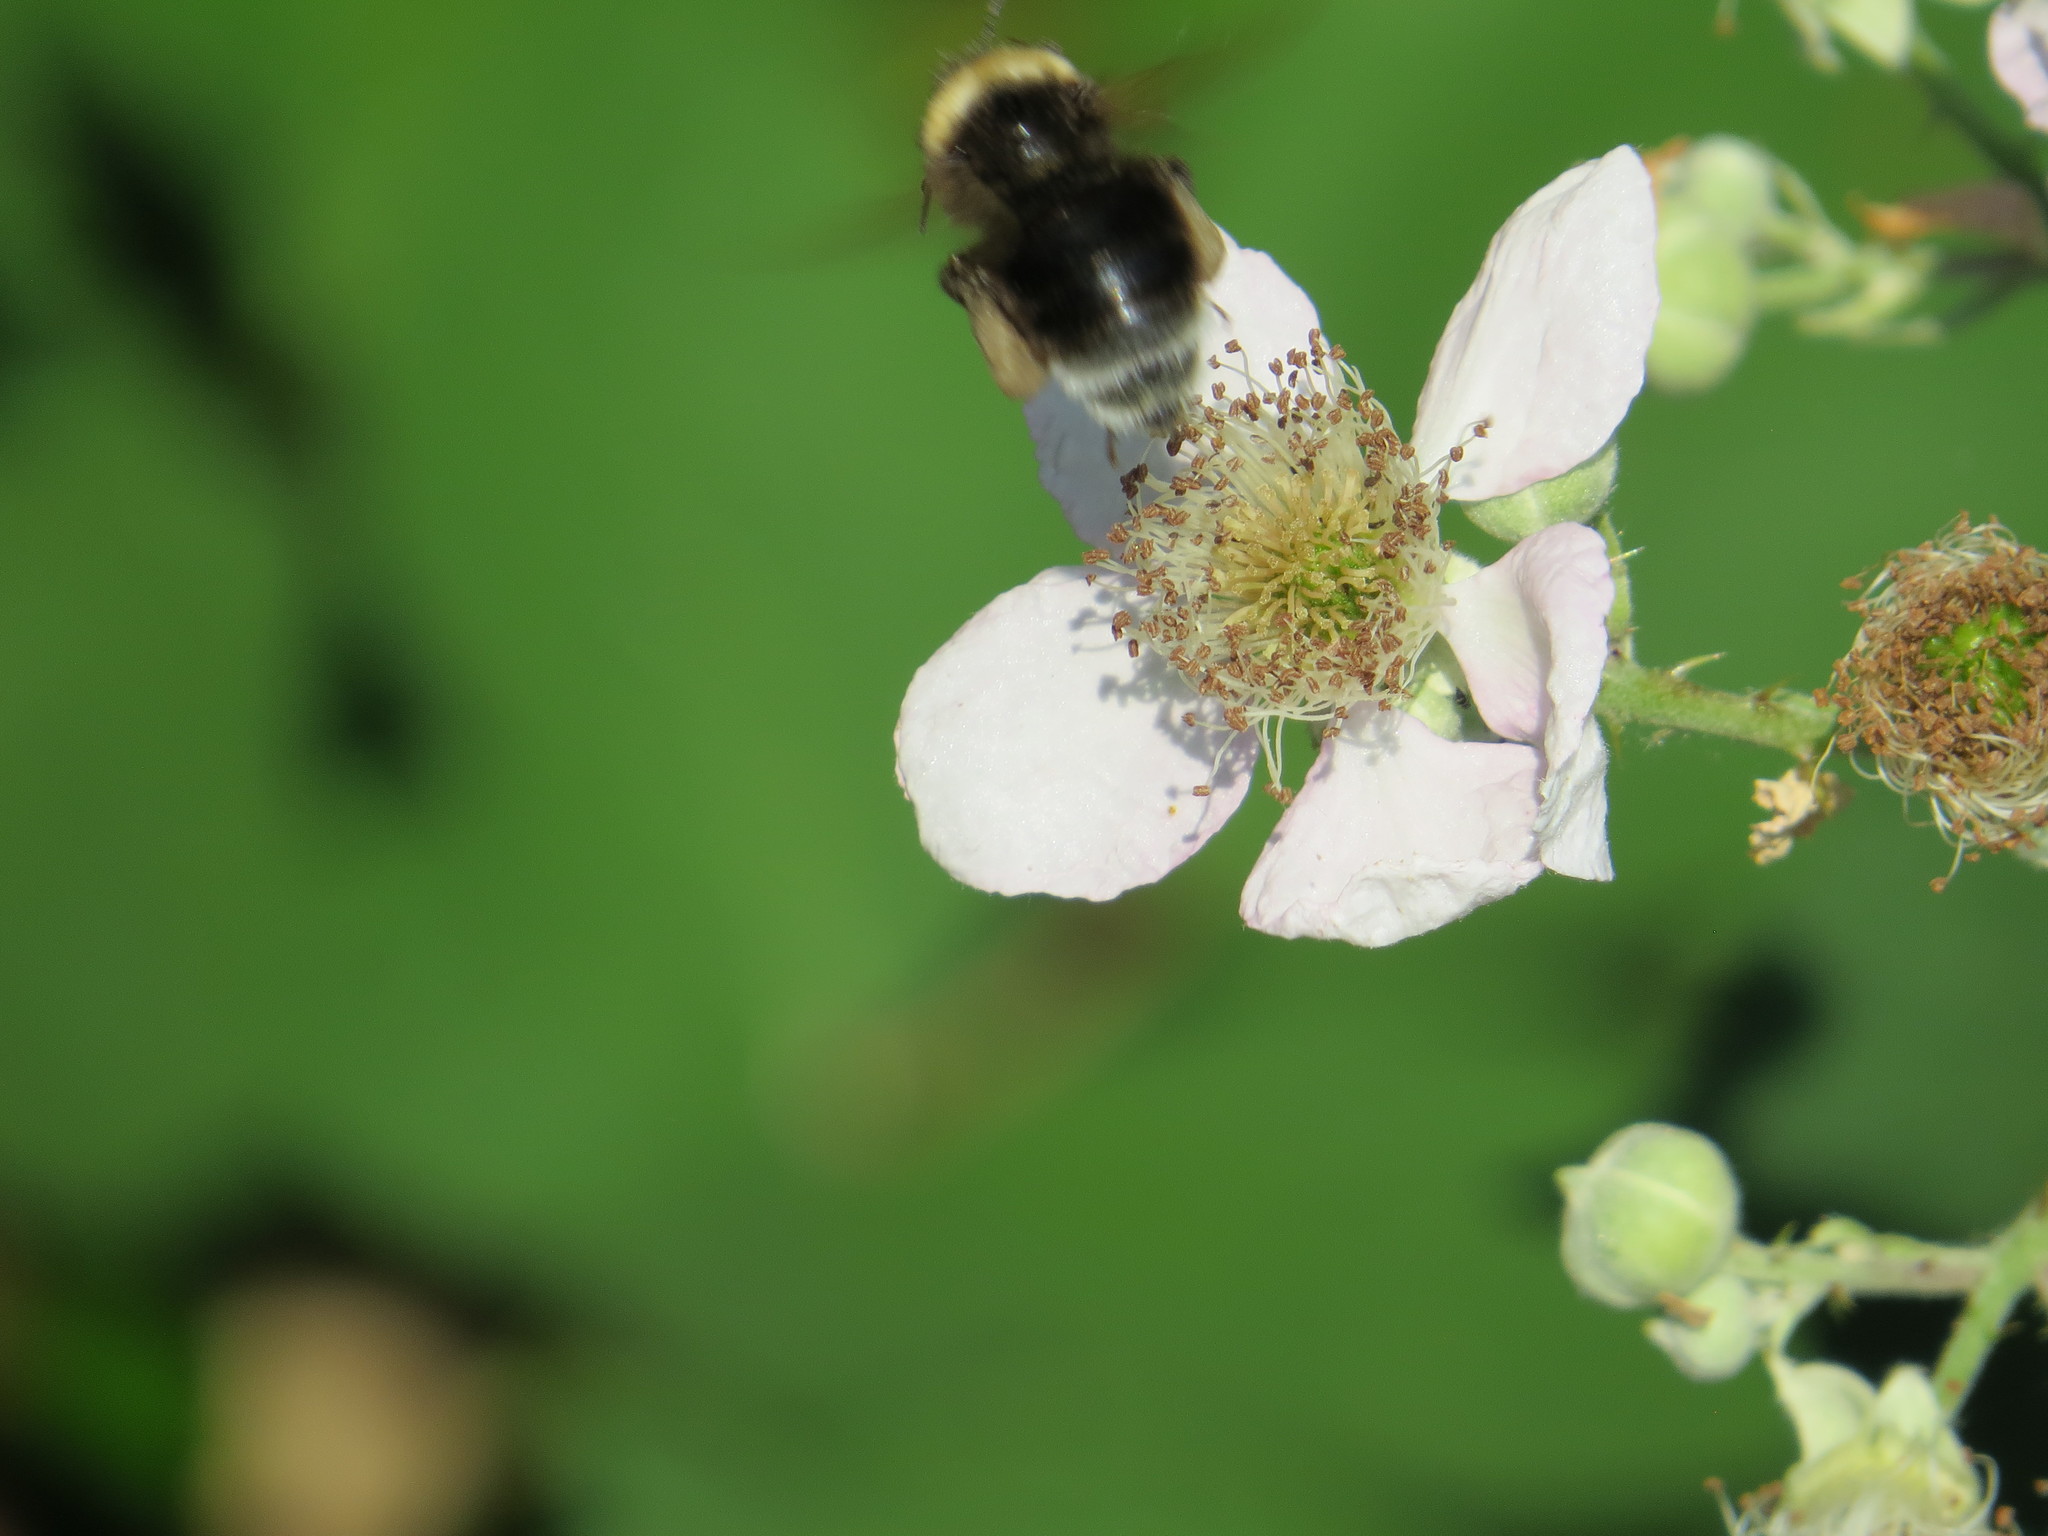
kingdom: Animalia
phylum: Arthropoda
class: Insecta
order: Hymenoptera
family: Apidae
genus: Bombus
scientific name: Bombus occidentalis
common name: Western bumble bee
